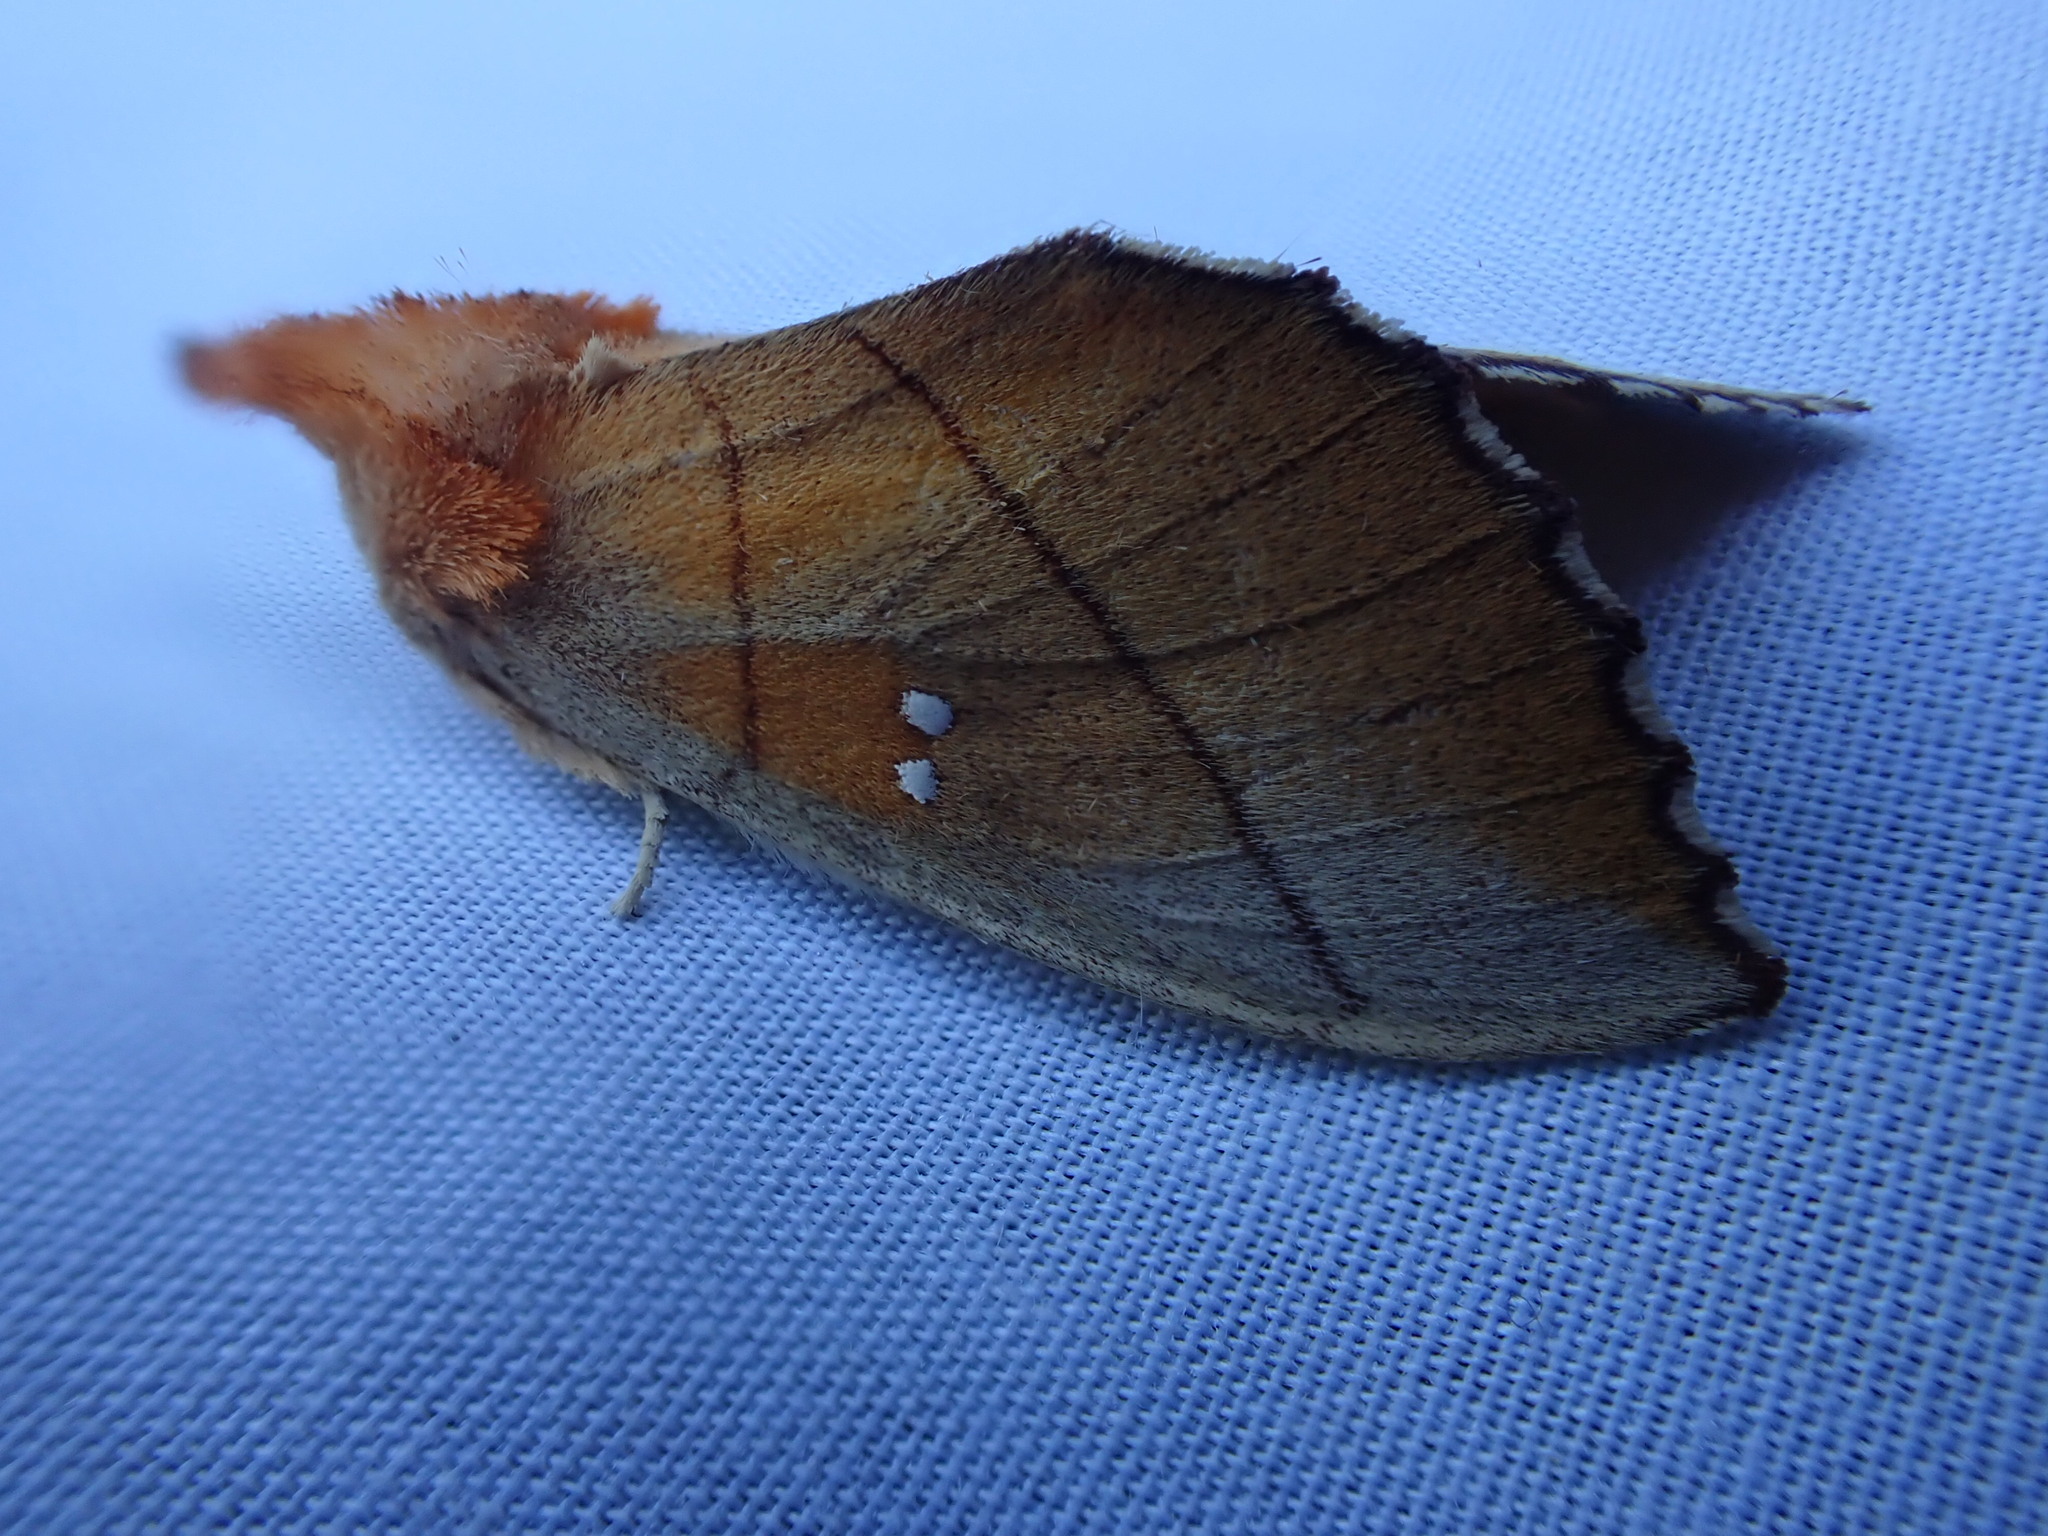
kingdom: Animalia
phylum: Arthropoda
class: Insecta
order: Lepidoptera
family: Notodontidae
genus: Nadata
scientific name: Nadata gibbosa
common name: White-dotted prominent
